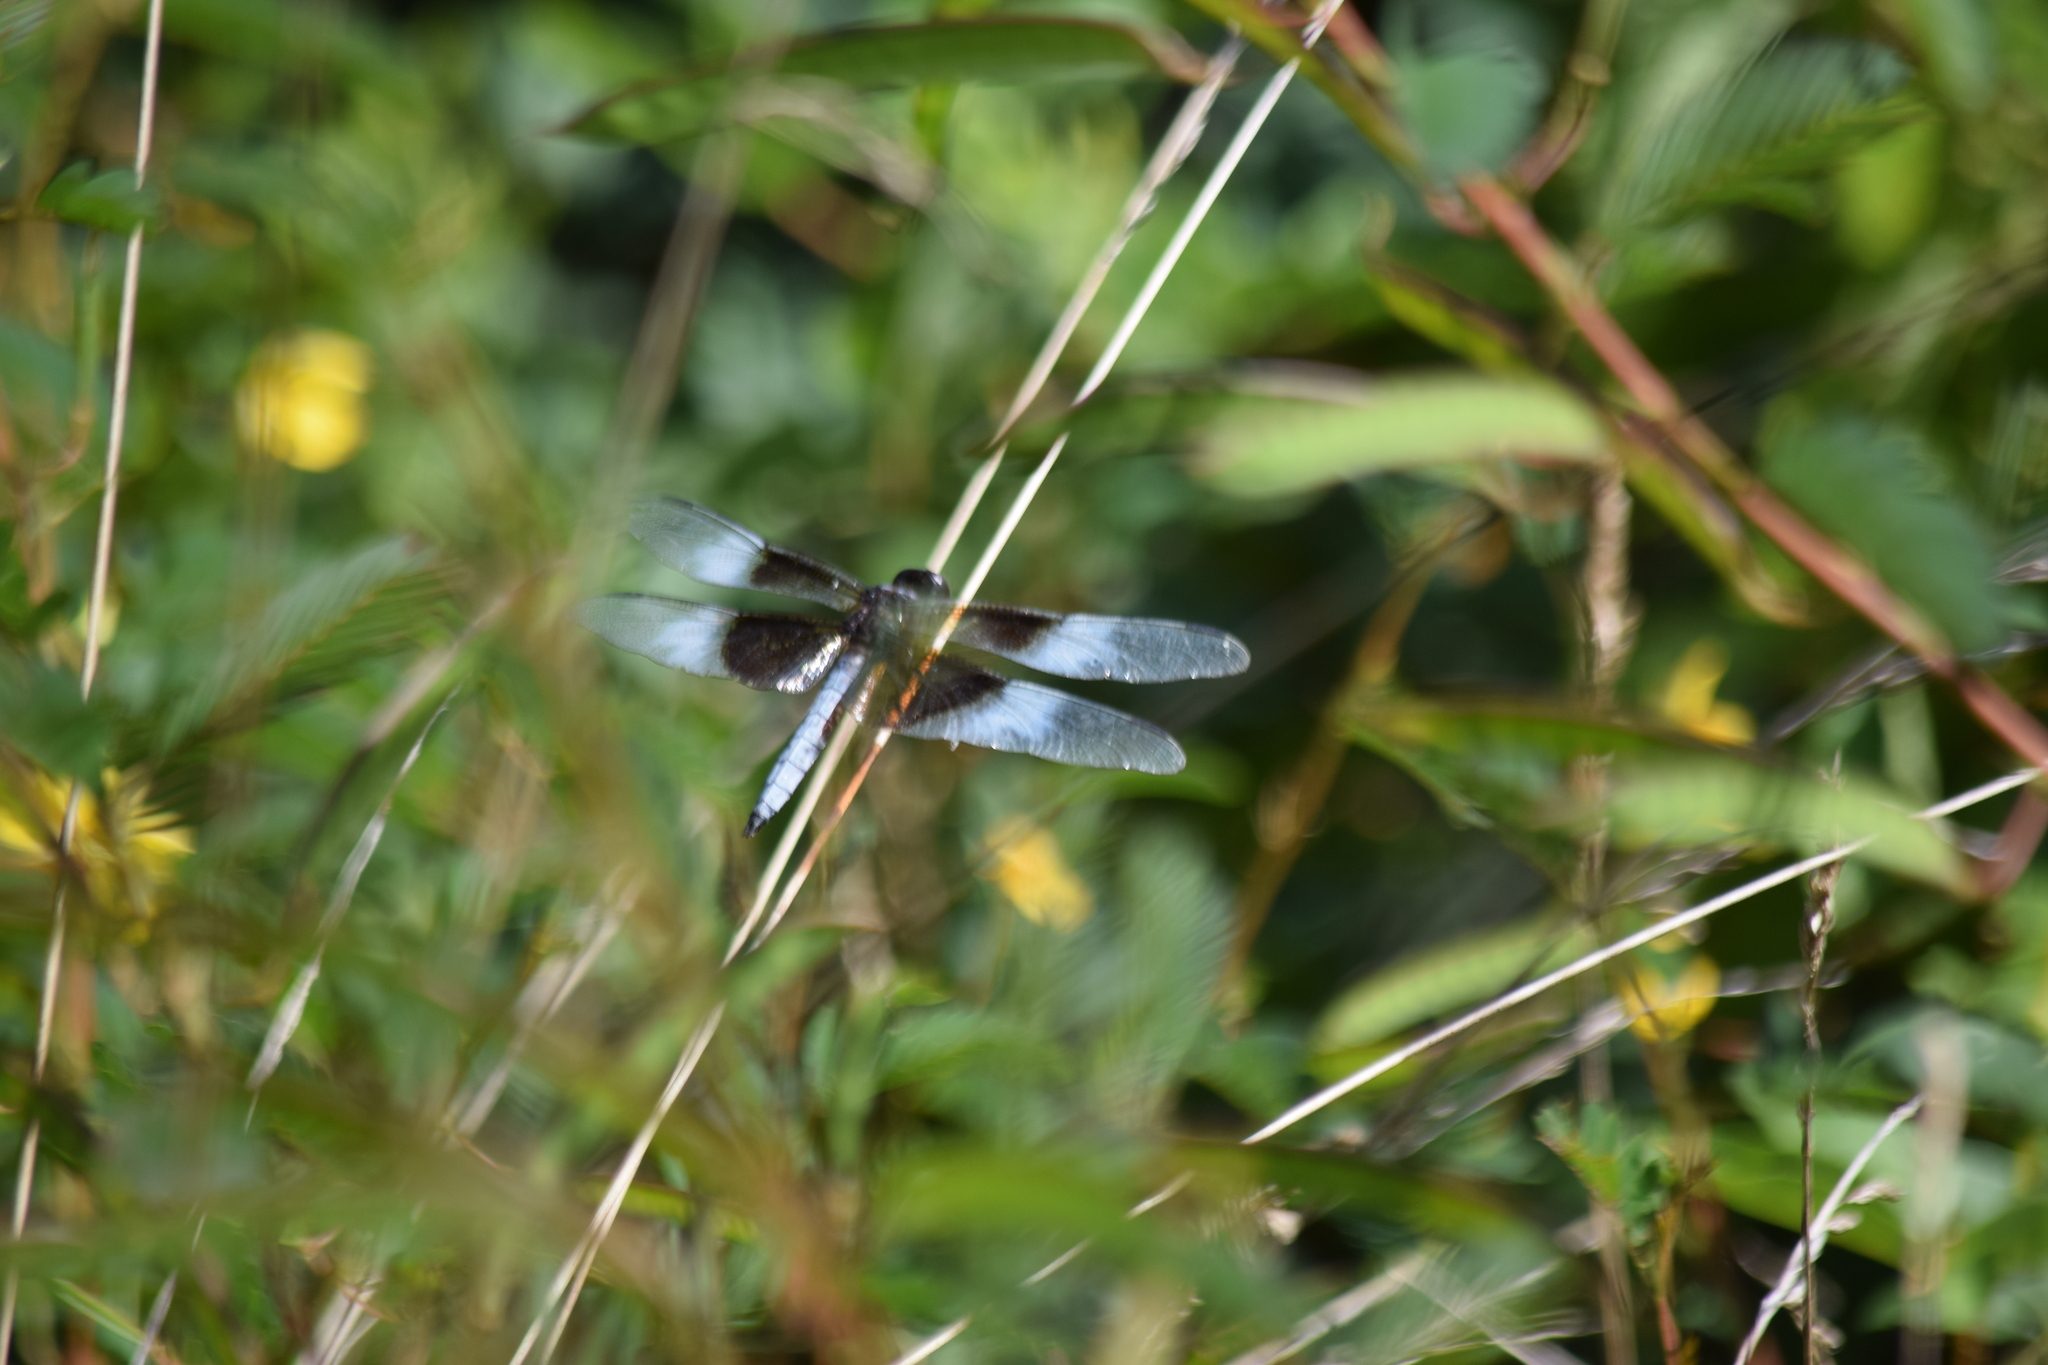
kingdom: Animalia
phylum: Arthropoda
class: Insecta
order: Odonata
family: Libellulidae
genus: Libellula
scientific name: Libellula luctuosa
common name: Widow skimmer
